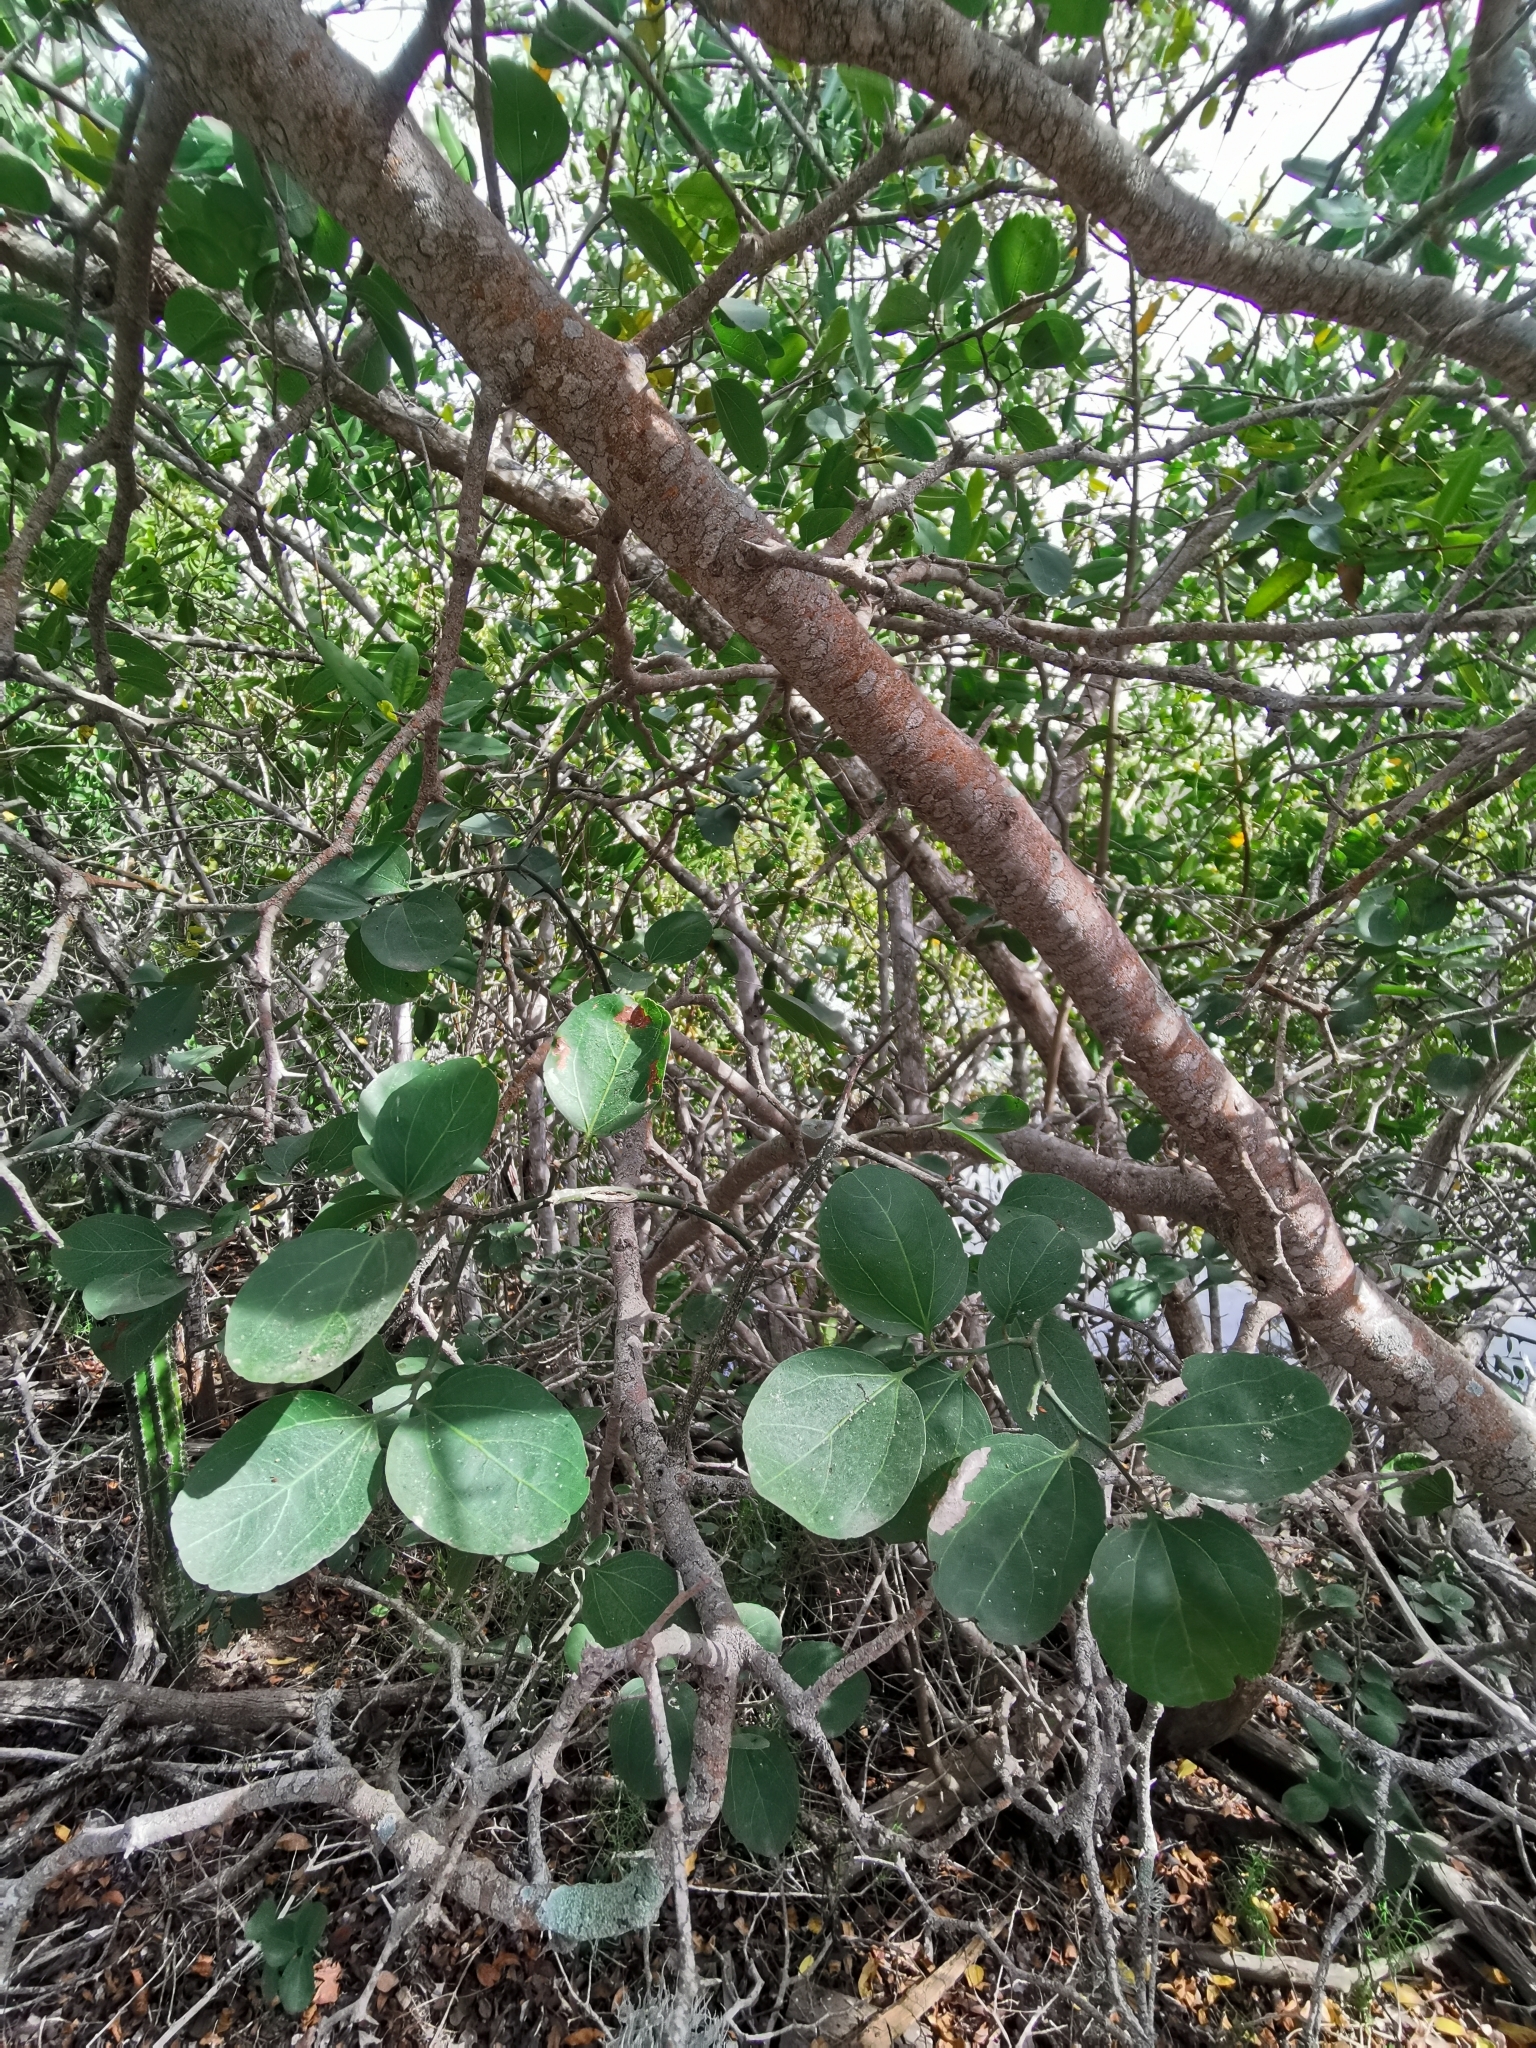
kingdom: Plantae
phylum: Tracheophyta
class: Magnoliopsida
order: Rosales
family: Rhamnaceae
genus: Sarcomphalus
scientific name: Sarcomphalus amole
